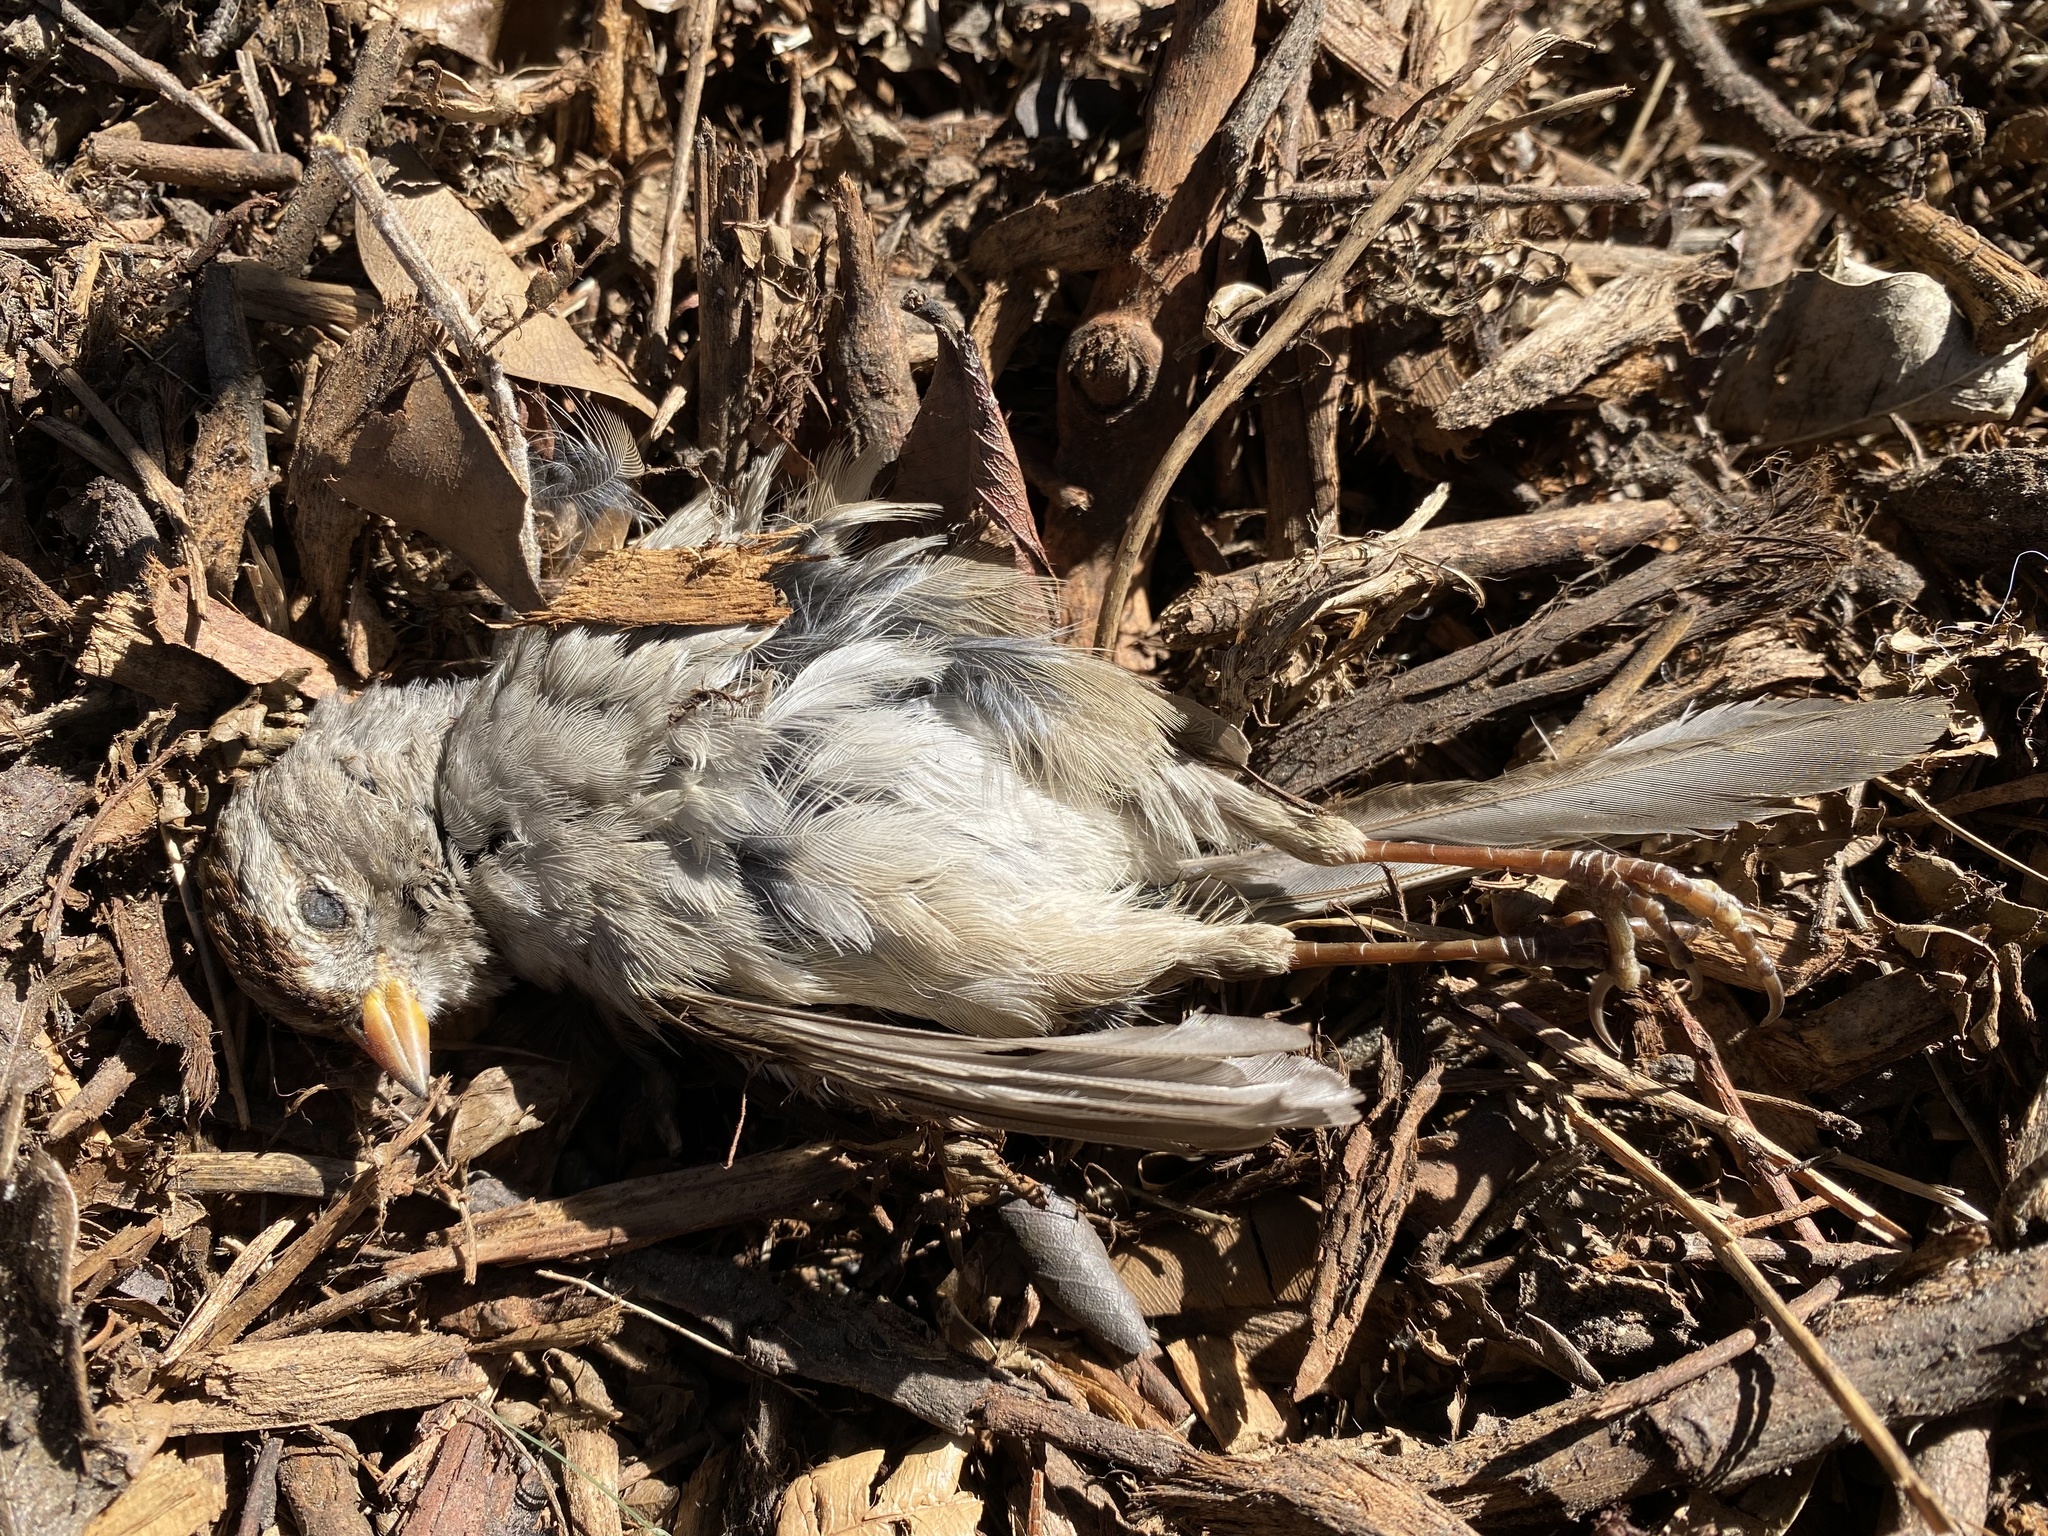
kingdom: Animalia
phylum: Chordata
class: Aves
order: Passeriformes
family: Passerellidae
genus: Zonotrichia
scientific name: Zonotrichia leucophrys
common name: White-crowned sparrow
